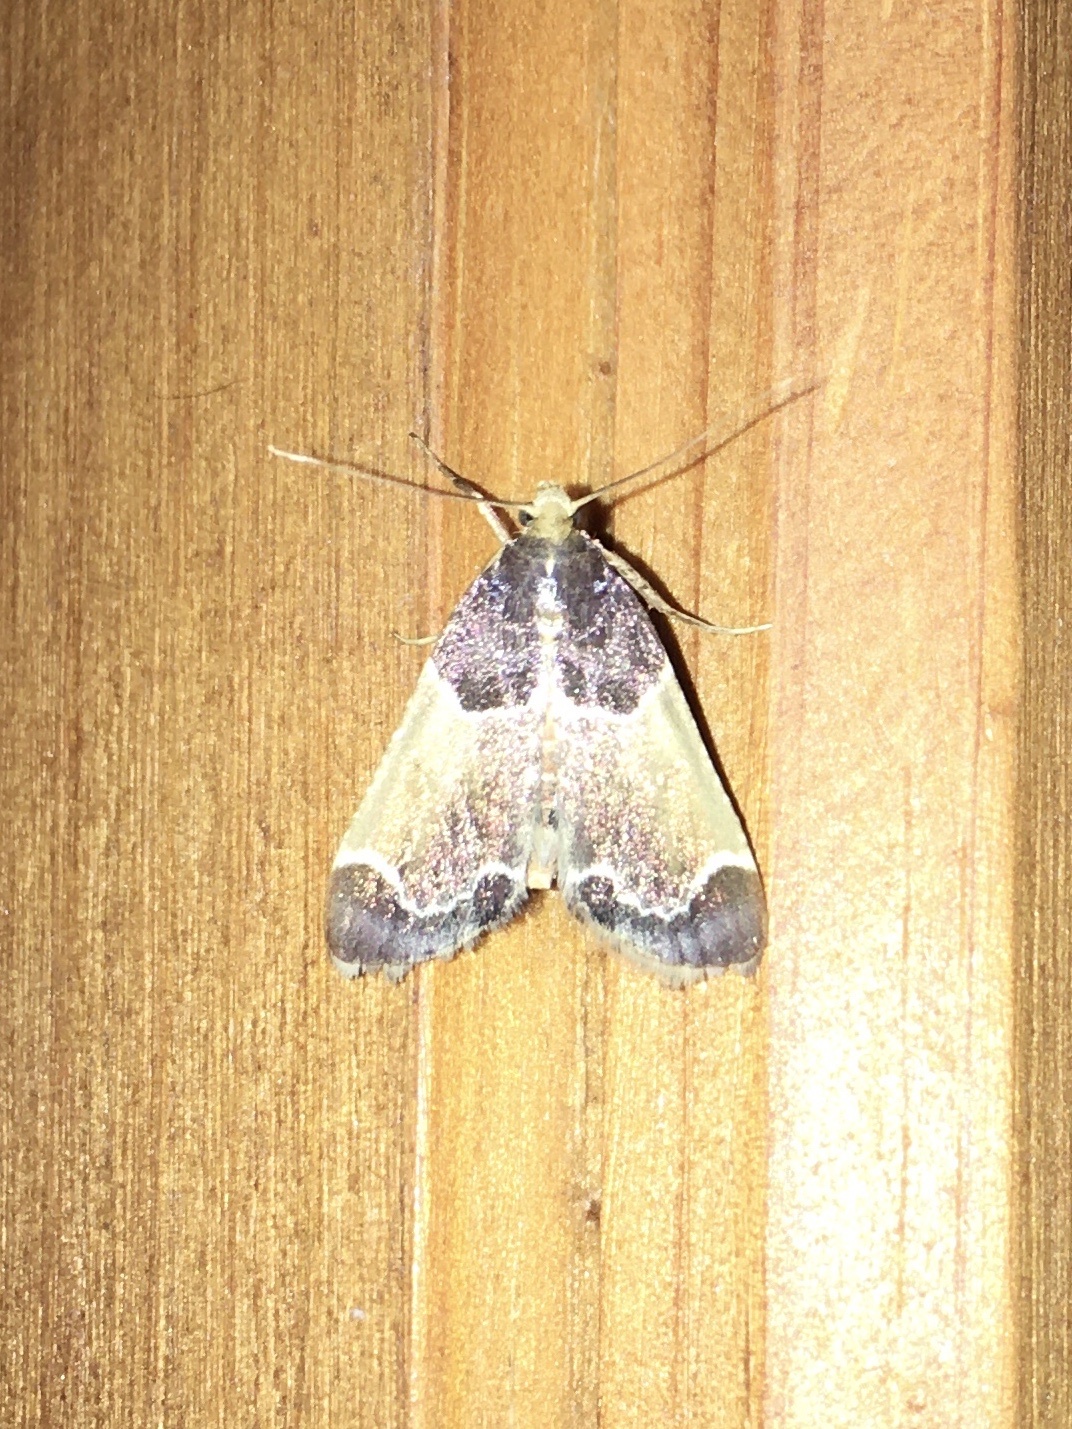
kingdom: Animalia
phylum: Arthropoda
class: Insecta
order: Lepidoptera
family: Pyralidae
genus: Pyralis
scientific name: Pyralis farinalis
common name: Meal moth
